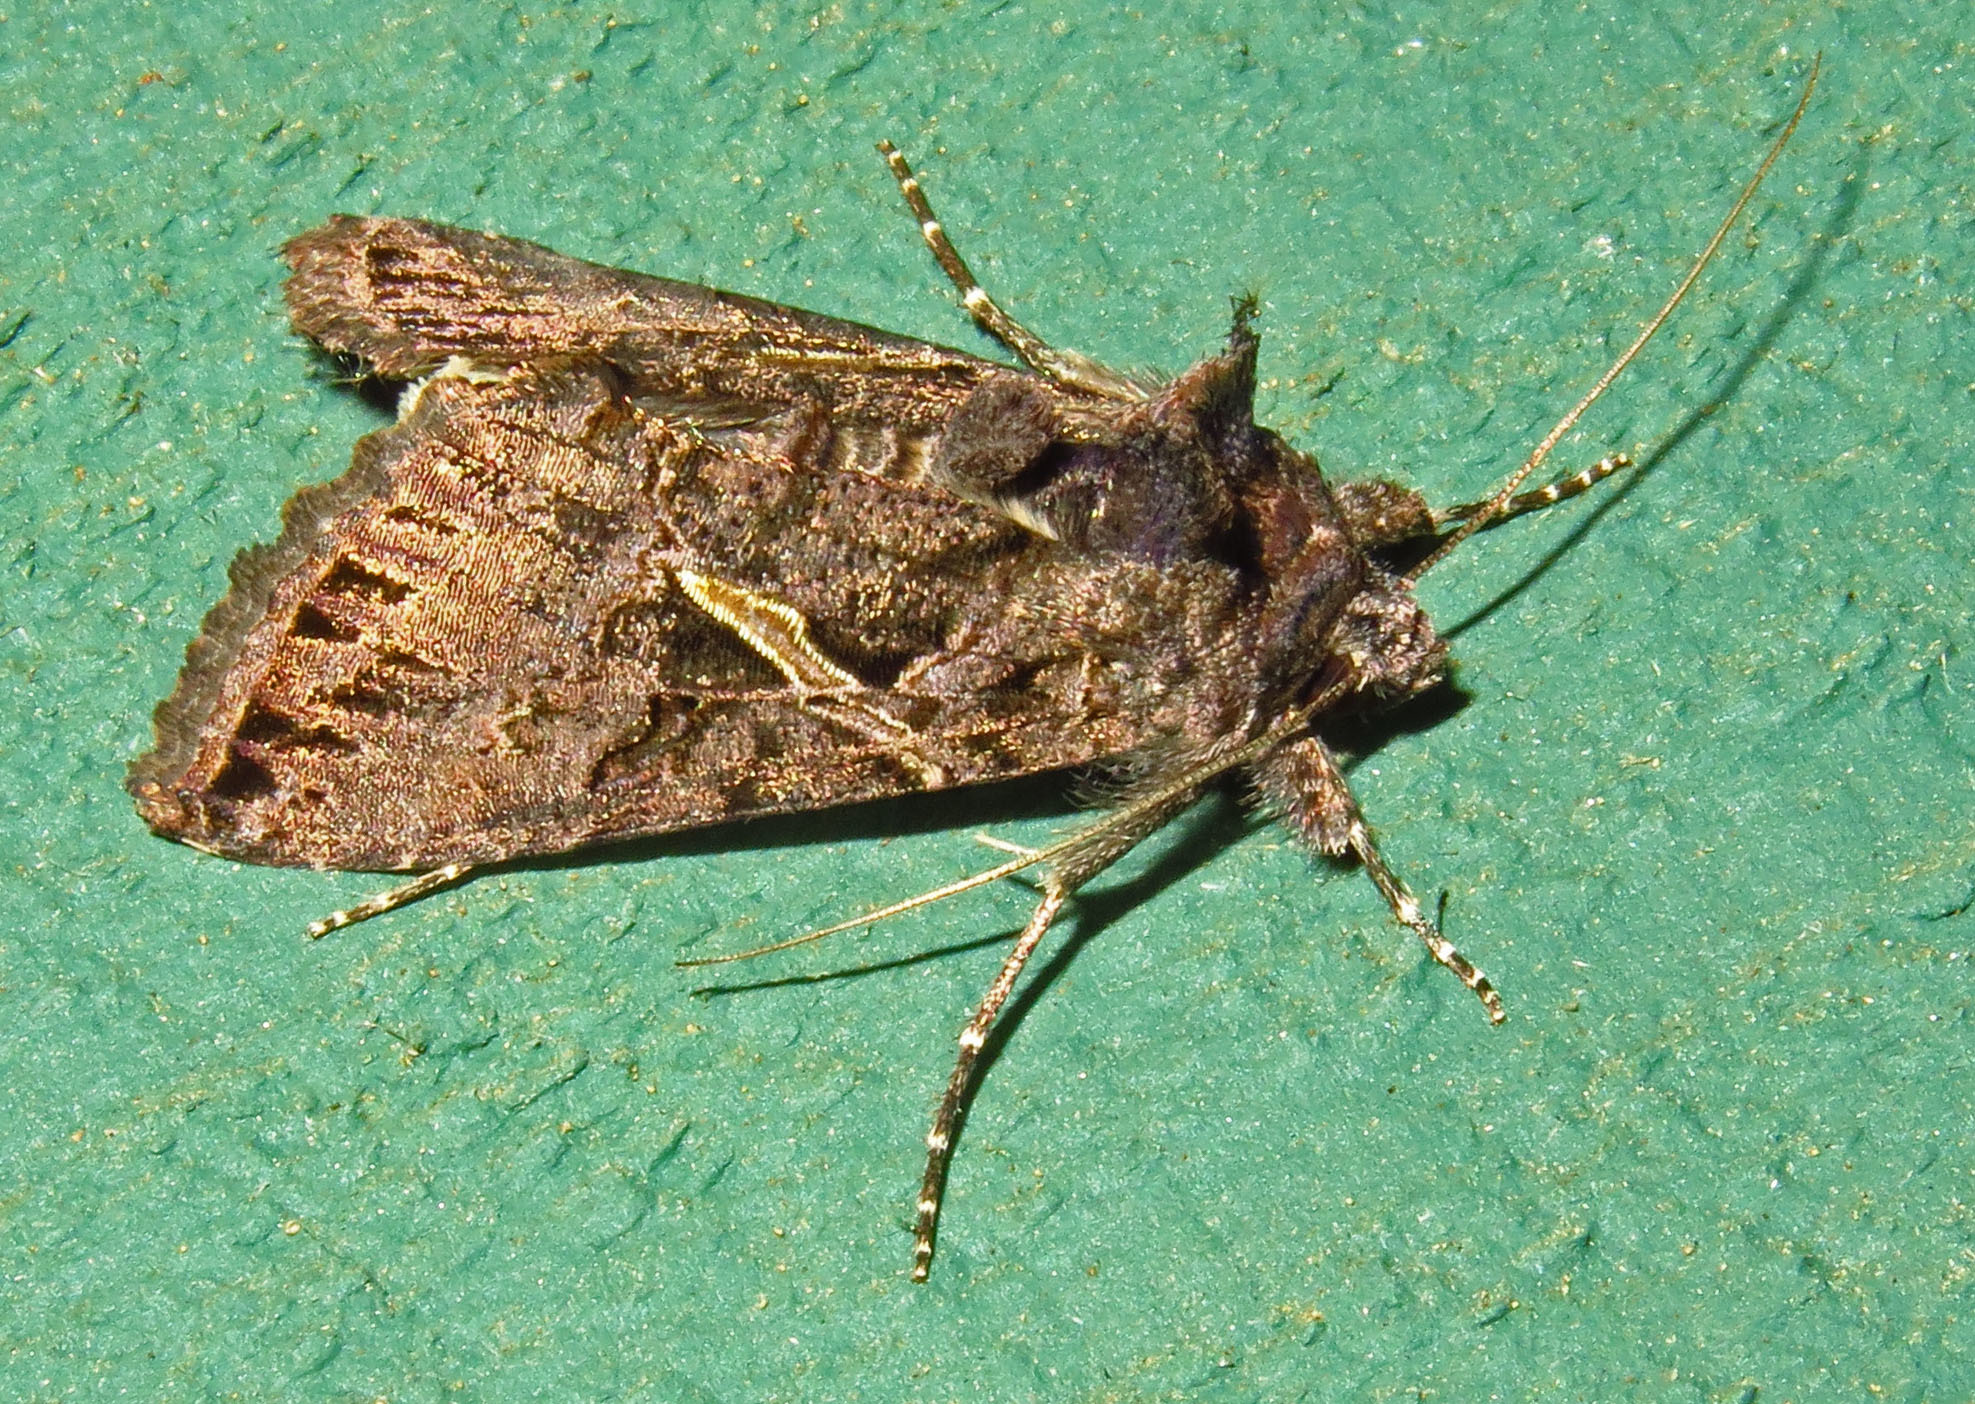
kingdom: Animalia
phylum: Arthropoda
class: Insecta
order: Lepidoptera
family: Noctuidae
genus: Ctenoplusia
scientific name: Ctenoplusia oxygramma
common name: Sharp-stigma looper moth
